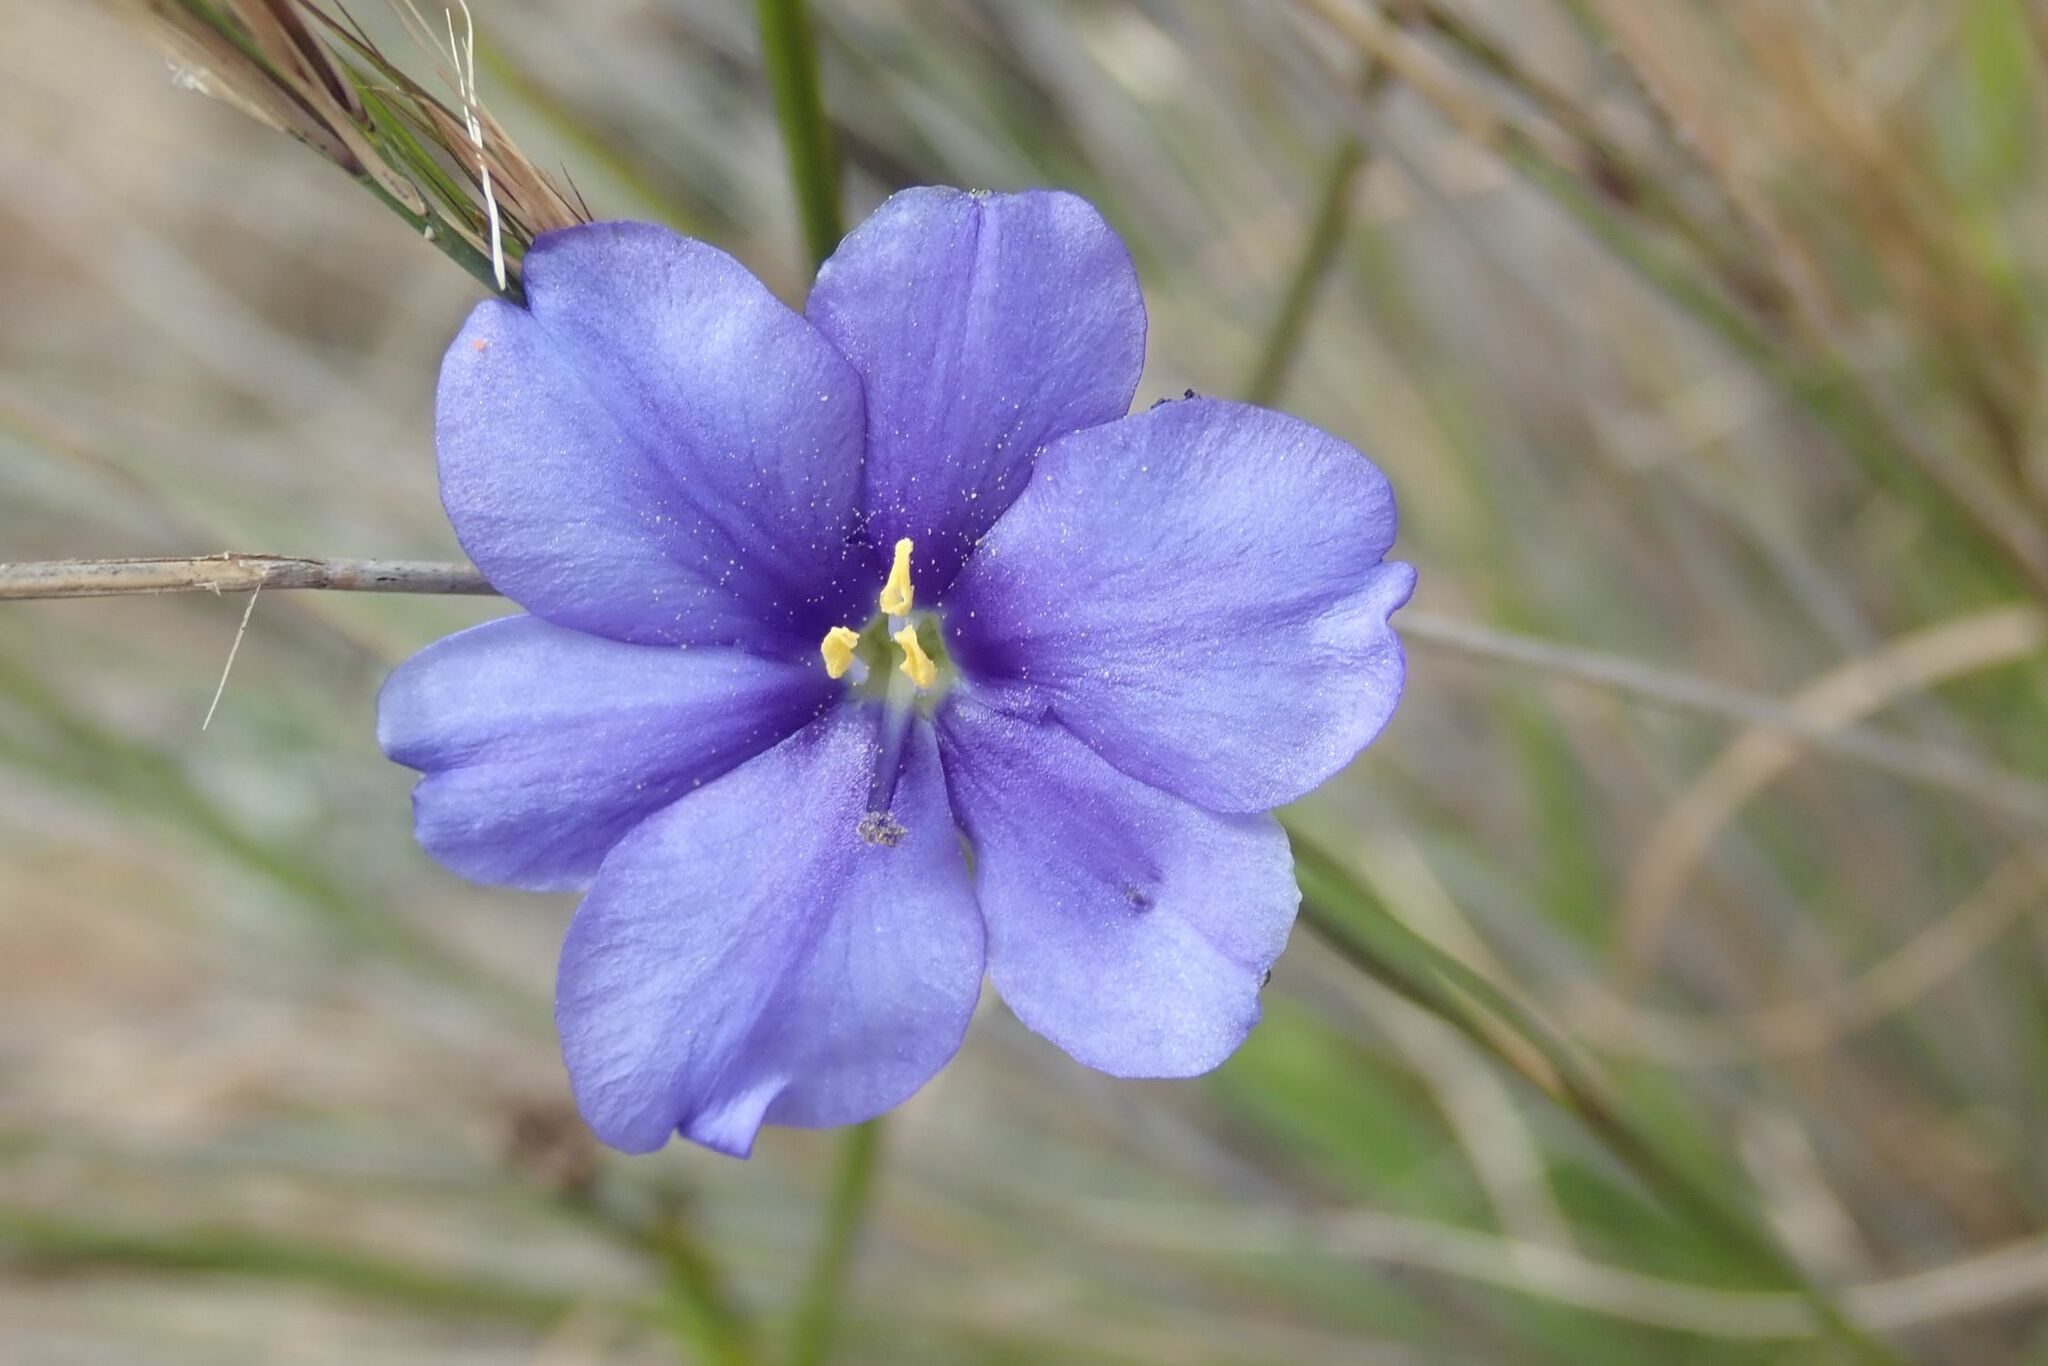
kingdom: Plantae
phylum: Tracheophyta
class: Liliopsida
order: Asparagales
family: Iridaceae
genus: Aristea
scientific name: Aristea torulosa
